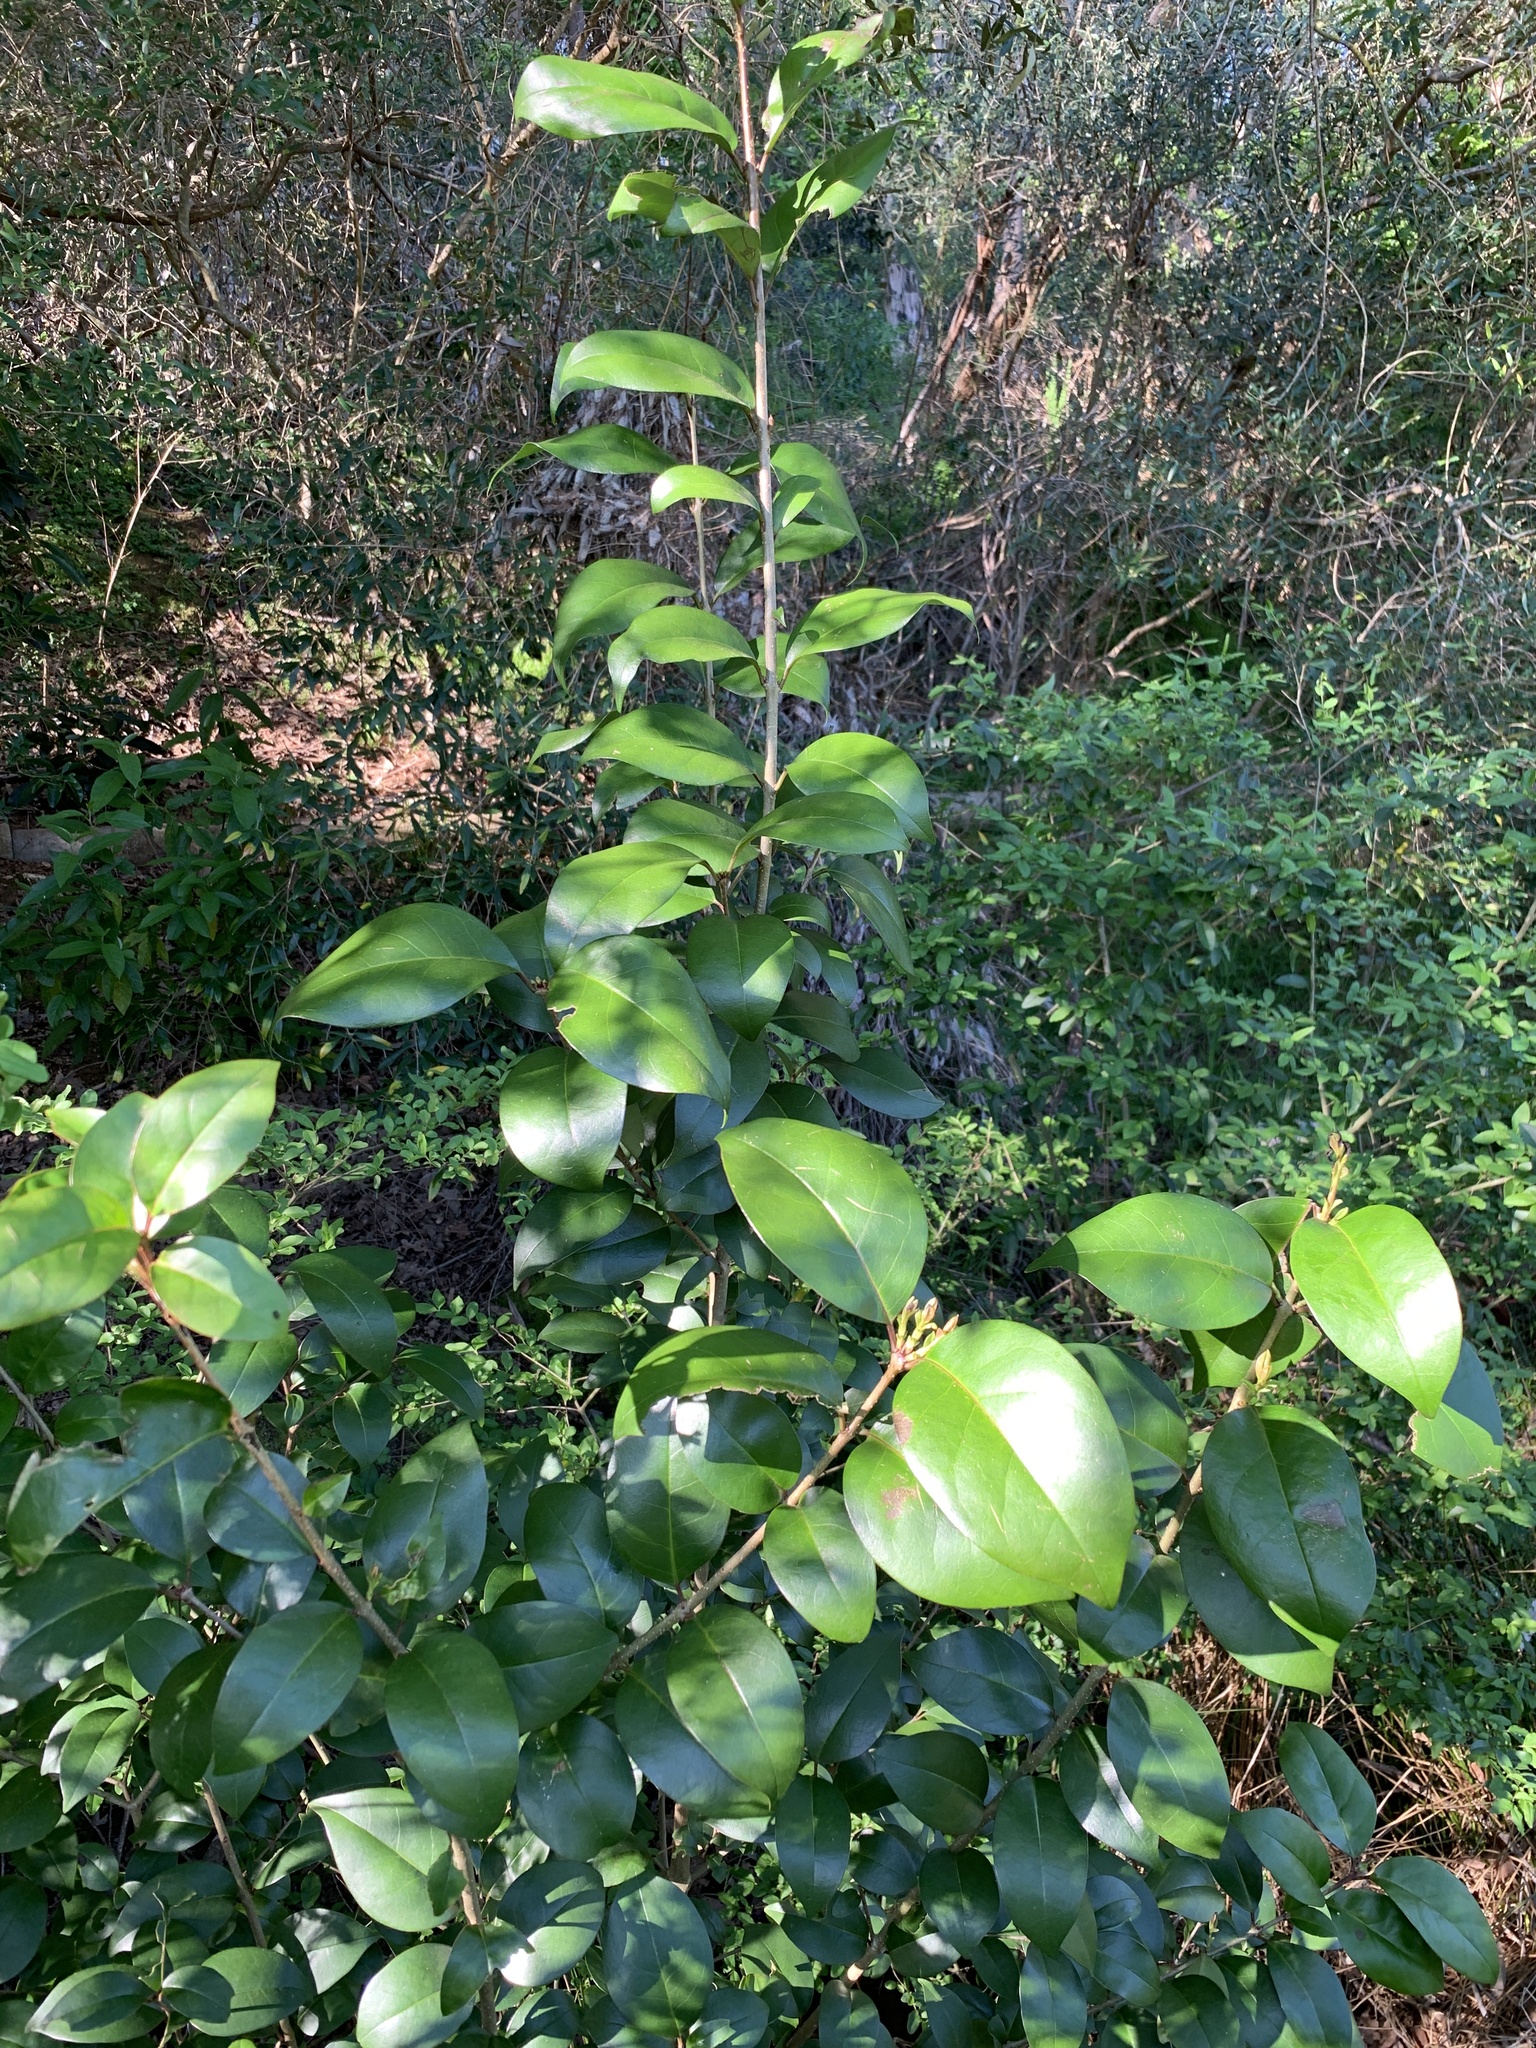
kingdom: Plantae
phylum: Tracheophyta
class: Magnoliopsida
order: Lamiales
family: Oleaceae
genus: Ligustrum
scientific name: Ligustrum lucidum
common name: Glossy privet
